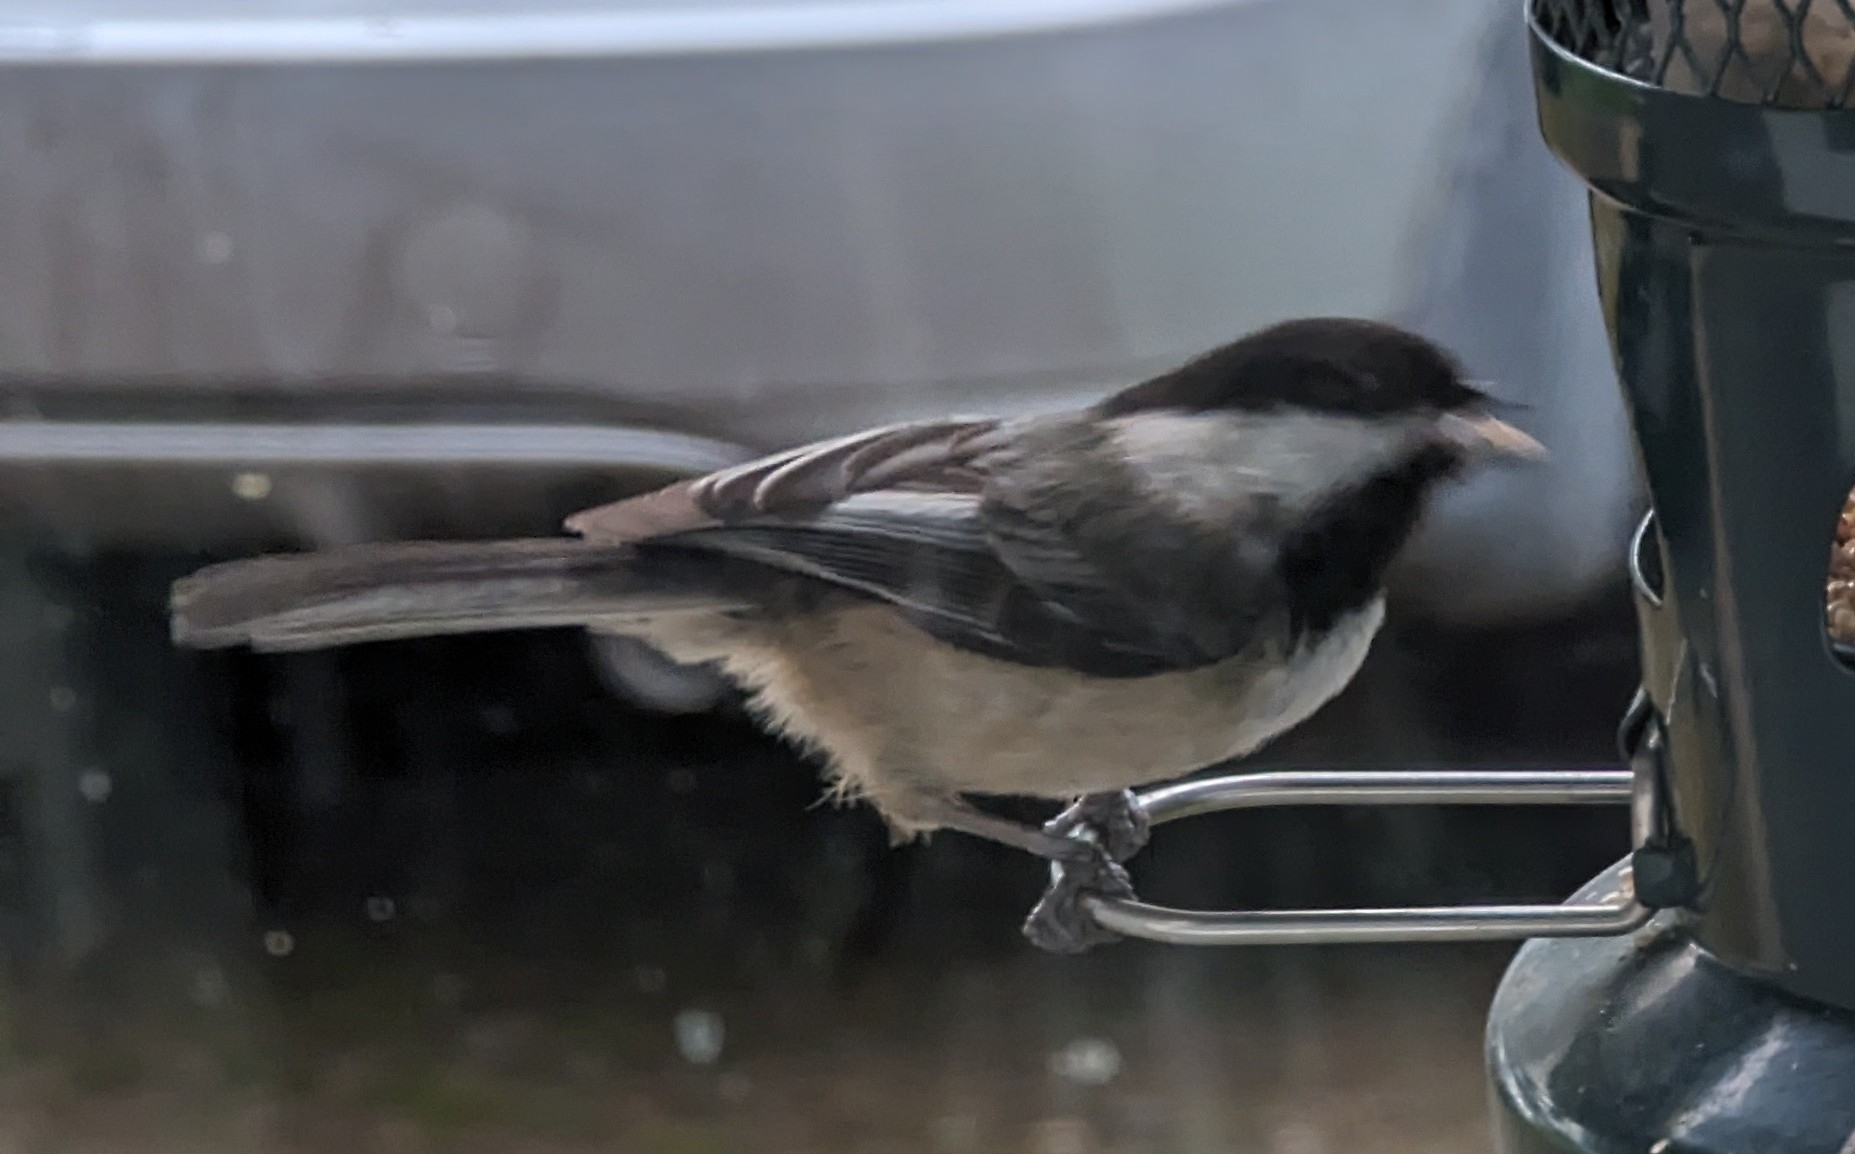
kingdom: Animalia
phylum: Chordata
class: Aves
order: Passeriformes
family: Paridae
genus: Poecile
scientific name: Poecile atricapillus
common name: Black-capped chickadee
